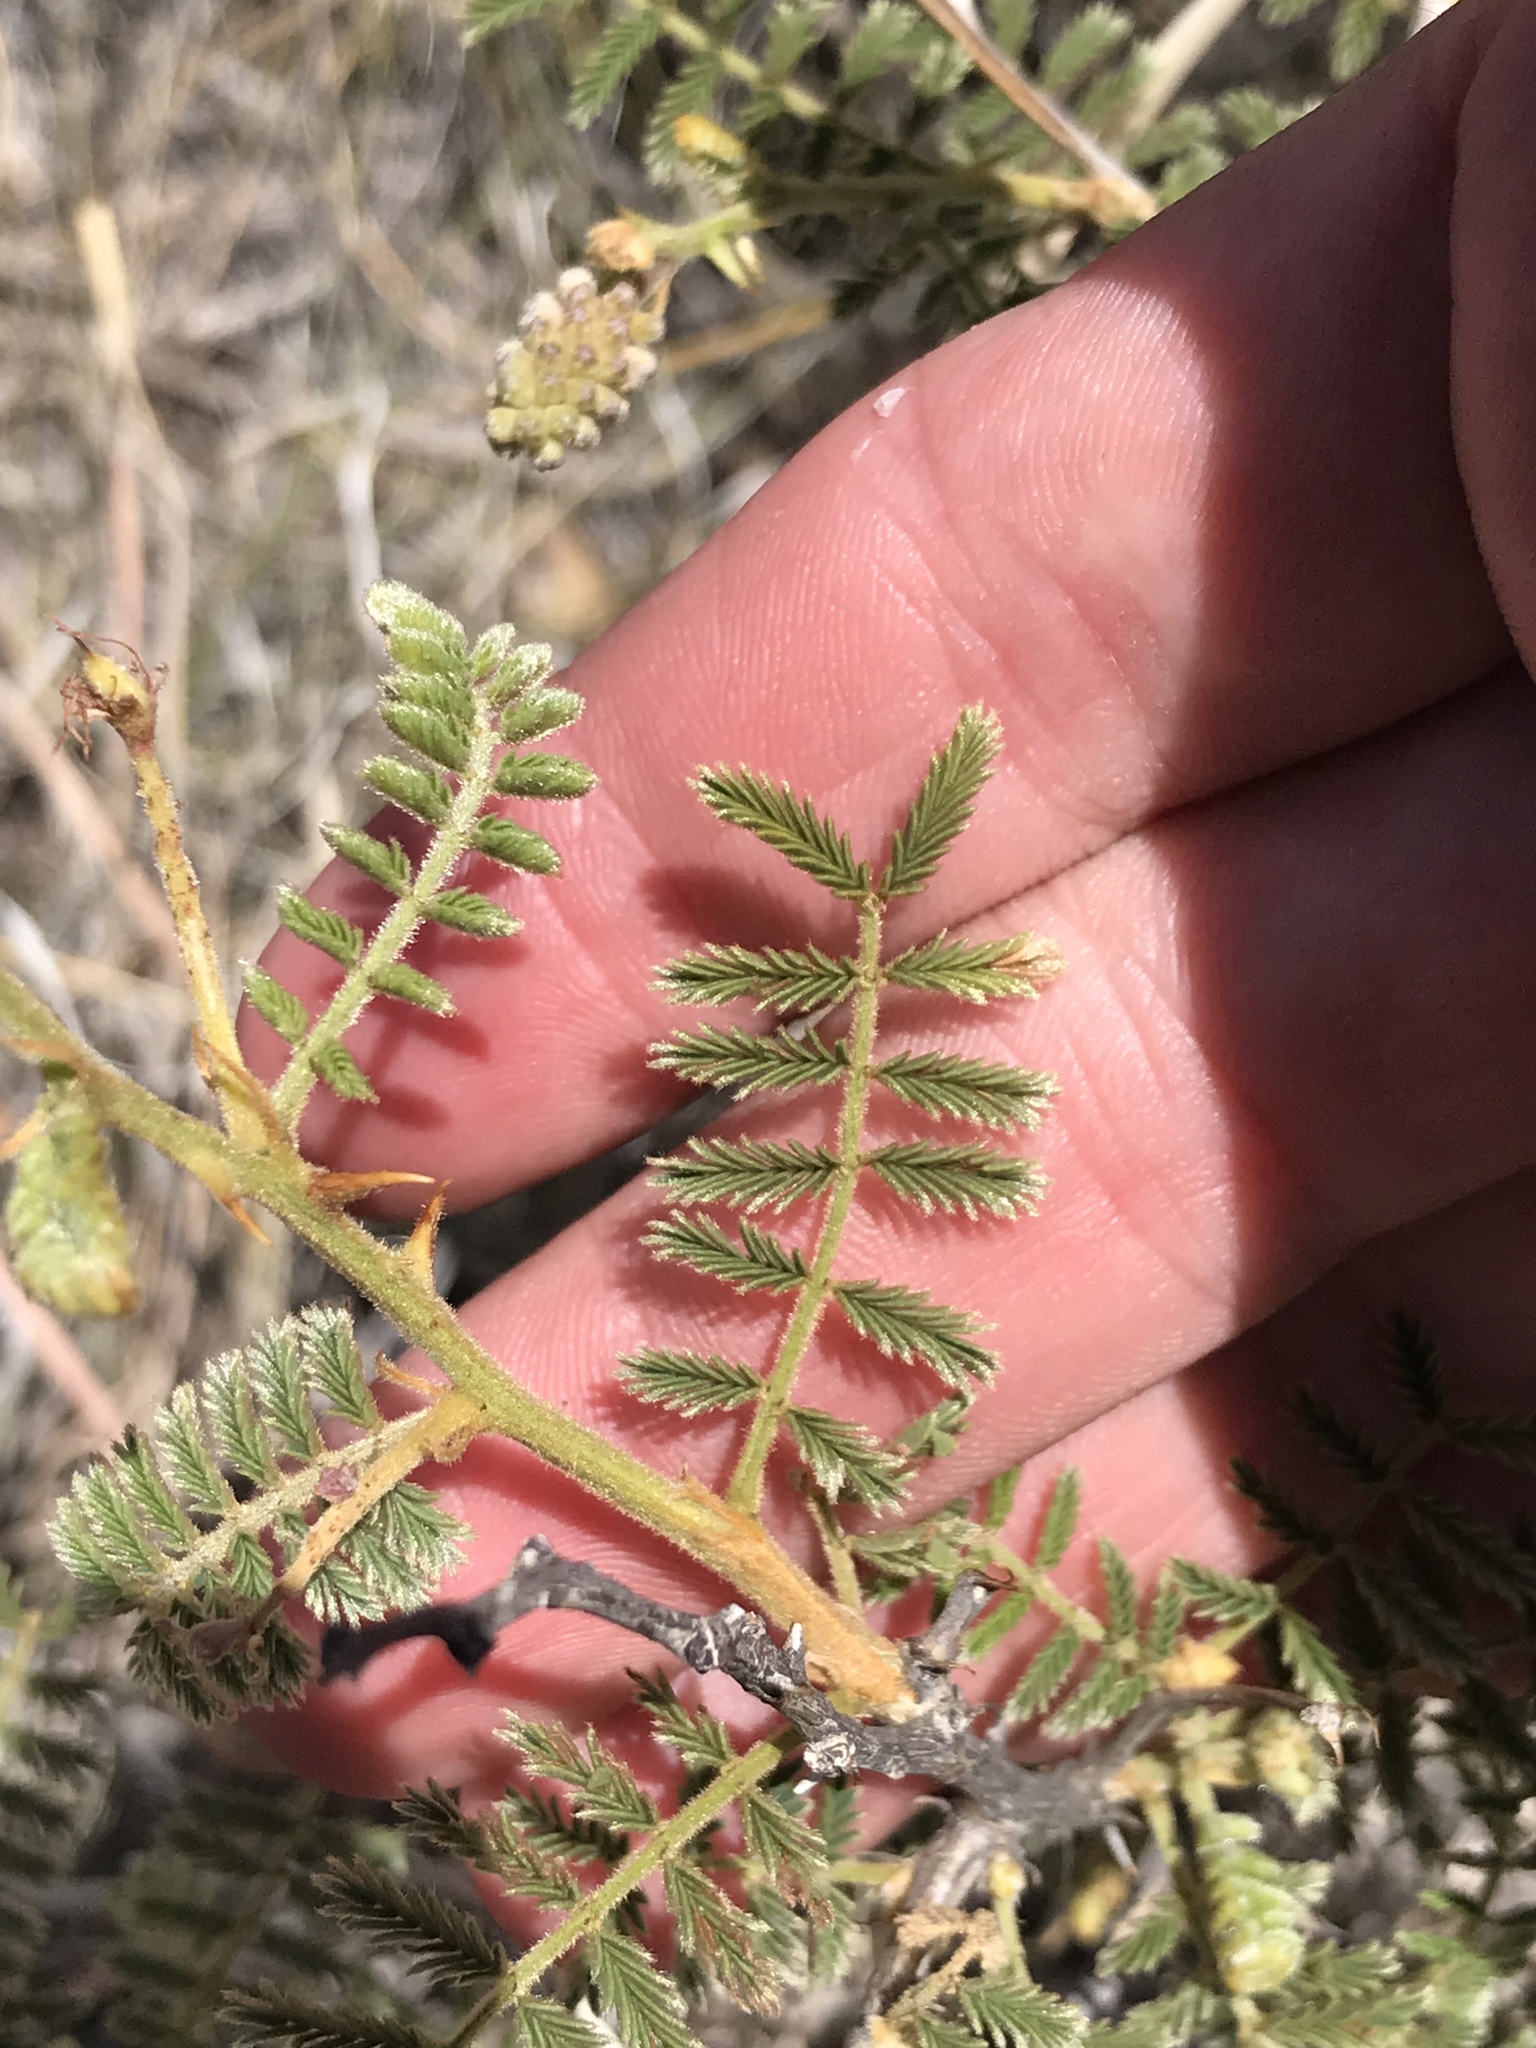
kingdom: Plantae
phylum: Tracheophyta
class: Magnoliopsida
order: Fabales
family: Fabaceae
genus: Mimosa
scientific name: Mimosa dysocarpa
